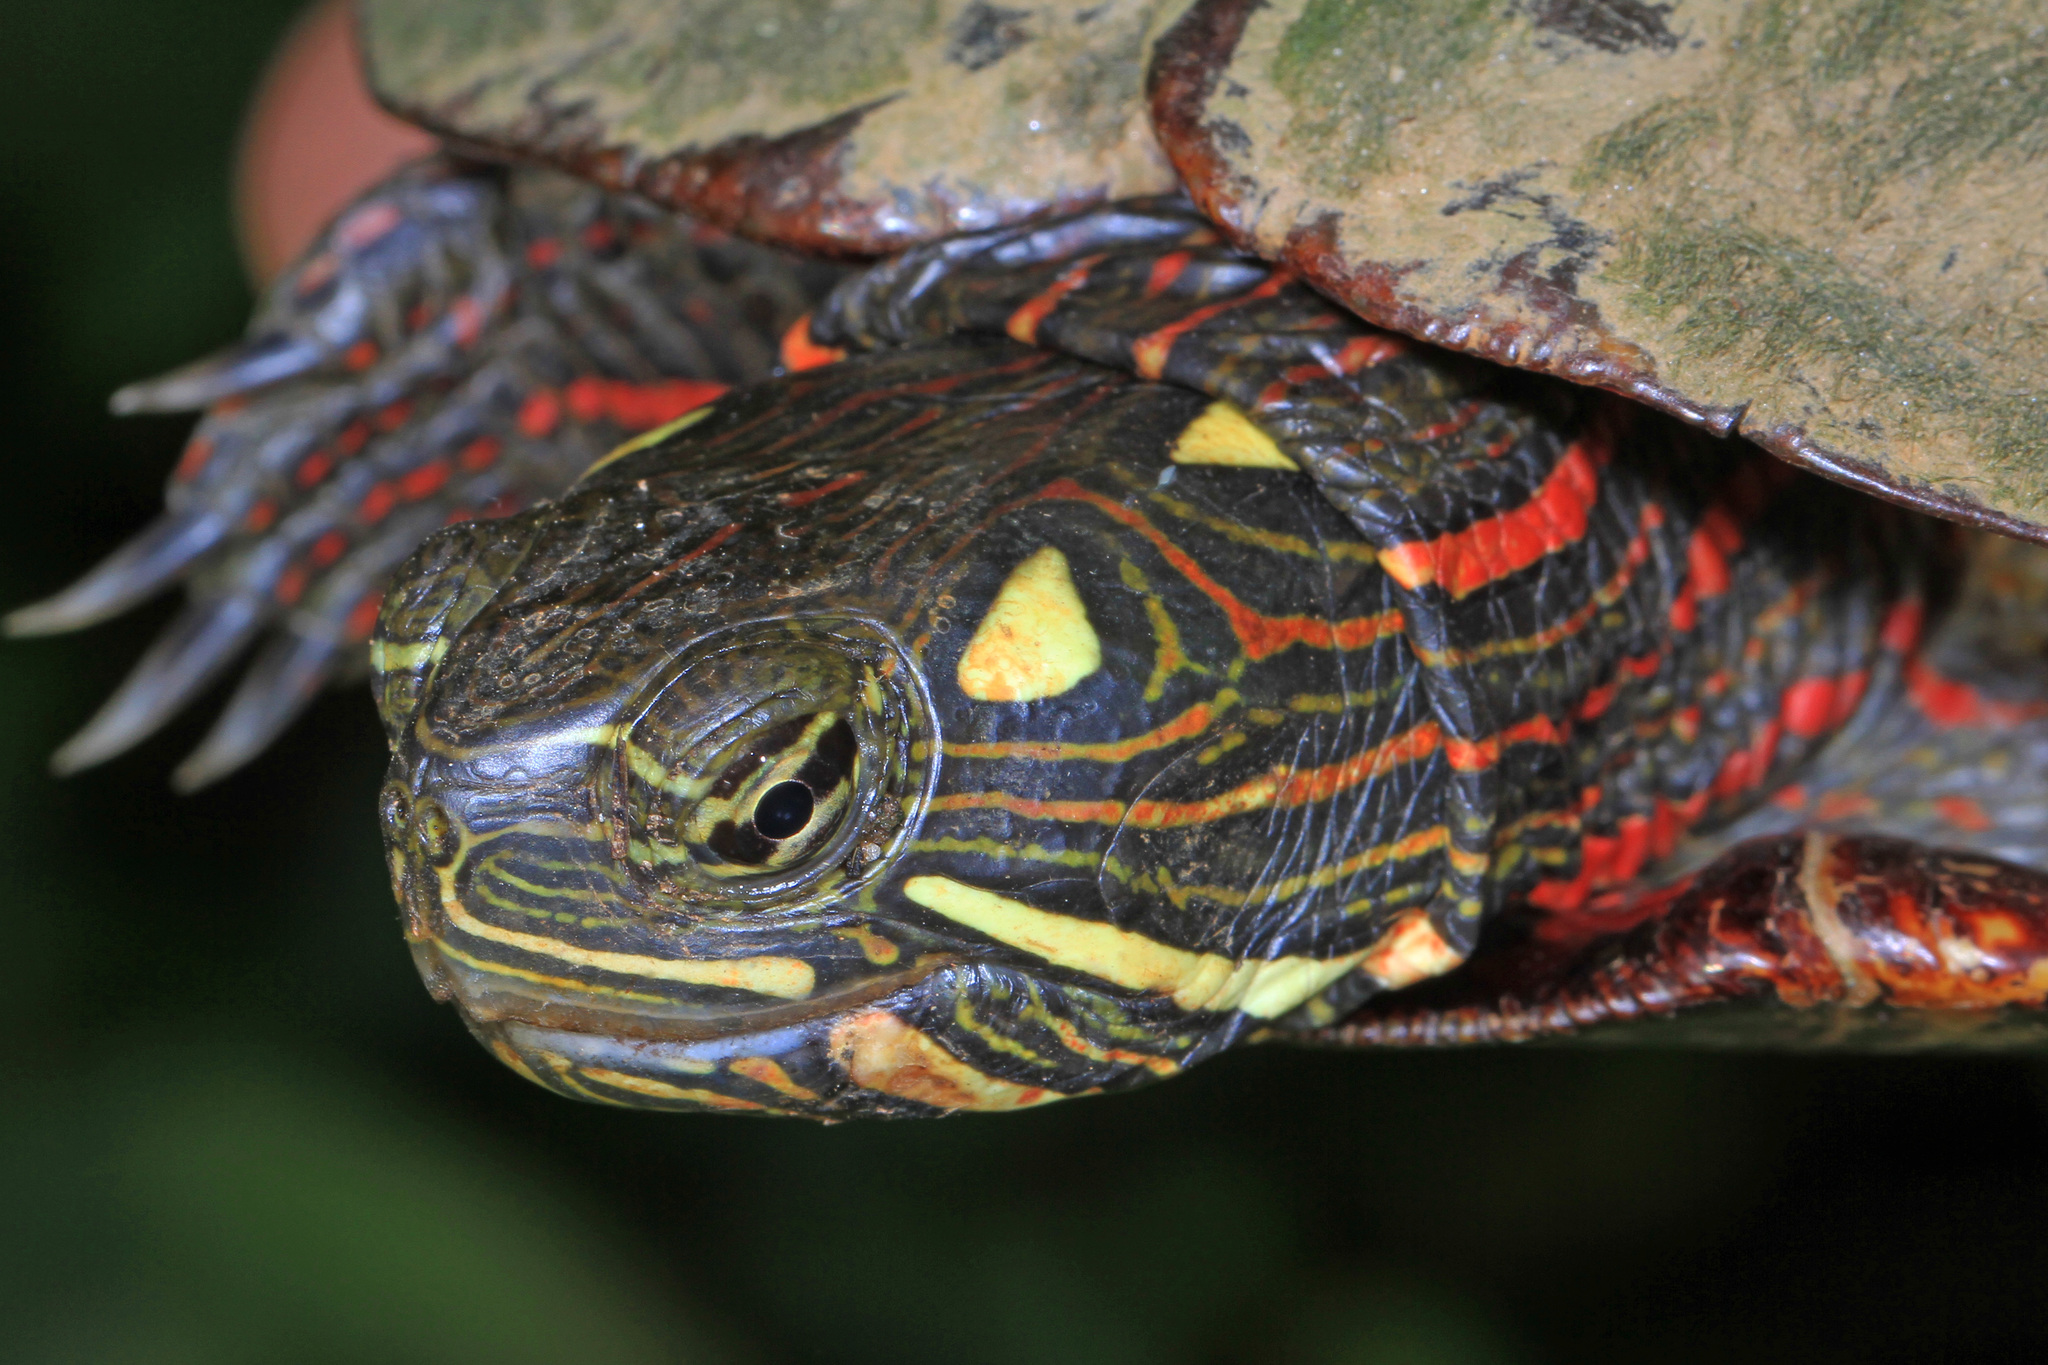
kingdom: Animalia
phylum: Chordata
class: Testudines
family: Emydidae
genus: Chrysemys
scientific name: Chrysemys picta
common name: Painted turtle
